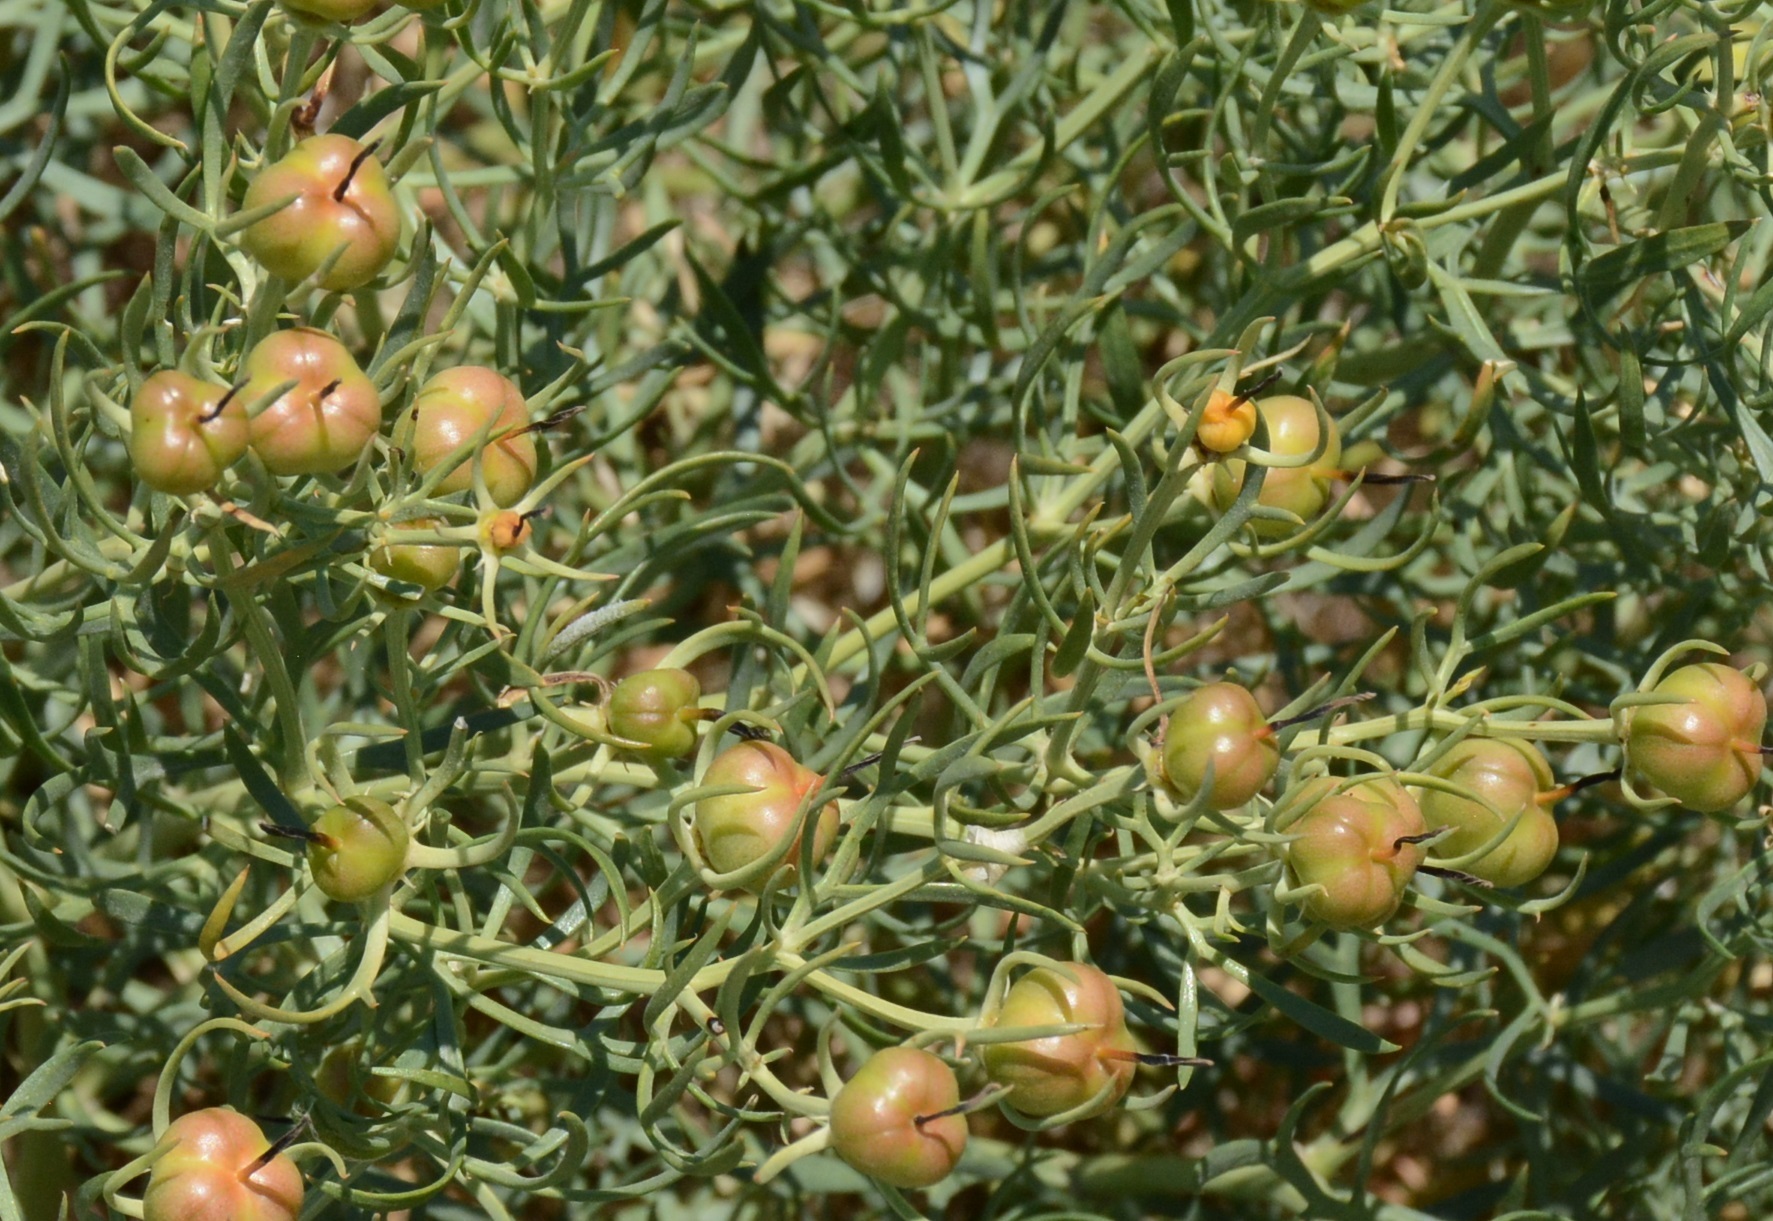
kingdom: Plantae
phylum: Tracheophyta
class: Magnoliopsida
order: Sapindales
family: Tetradiclidaceae
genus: Peganum
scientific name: Peganum harmala
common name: Harmal peganum
